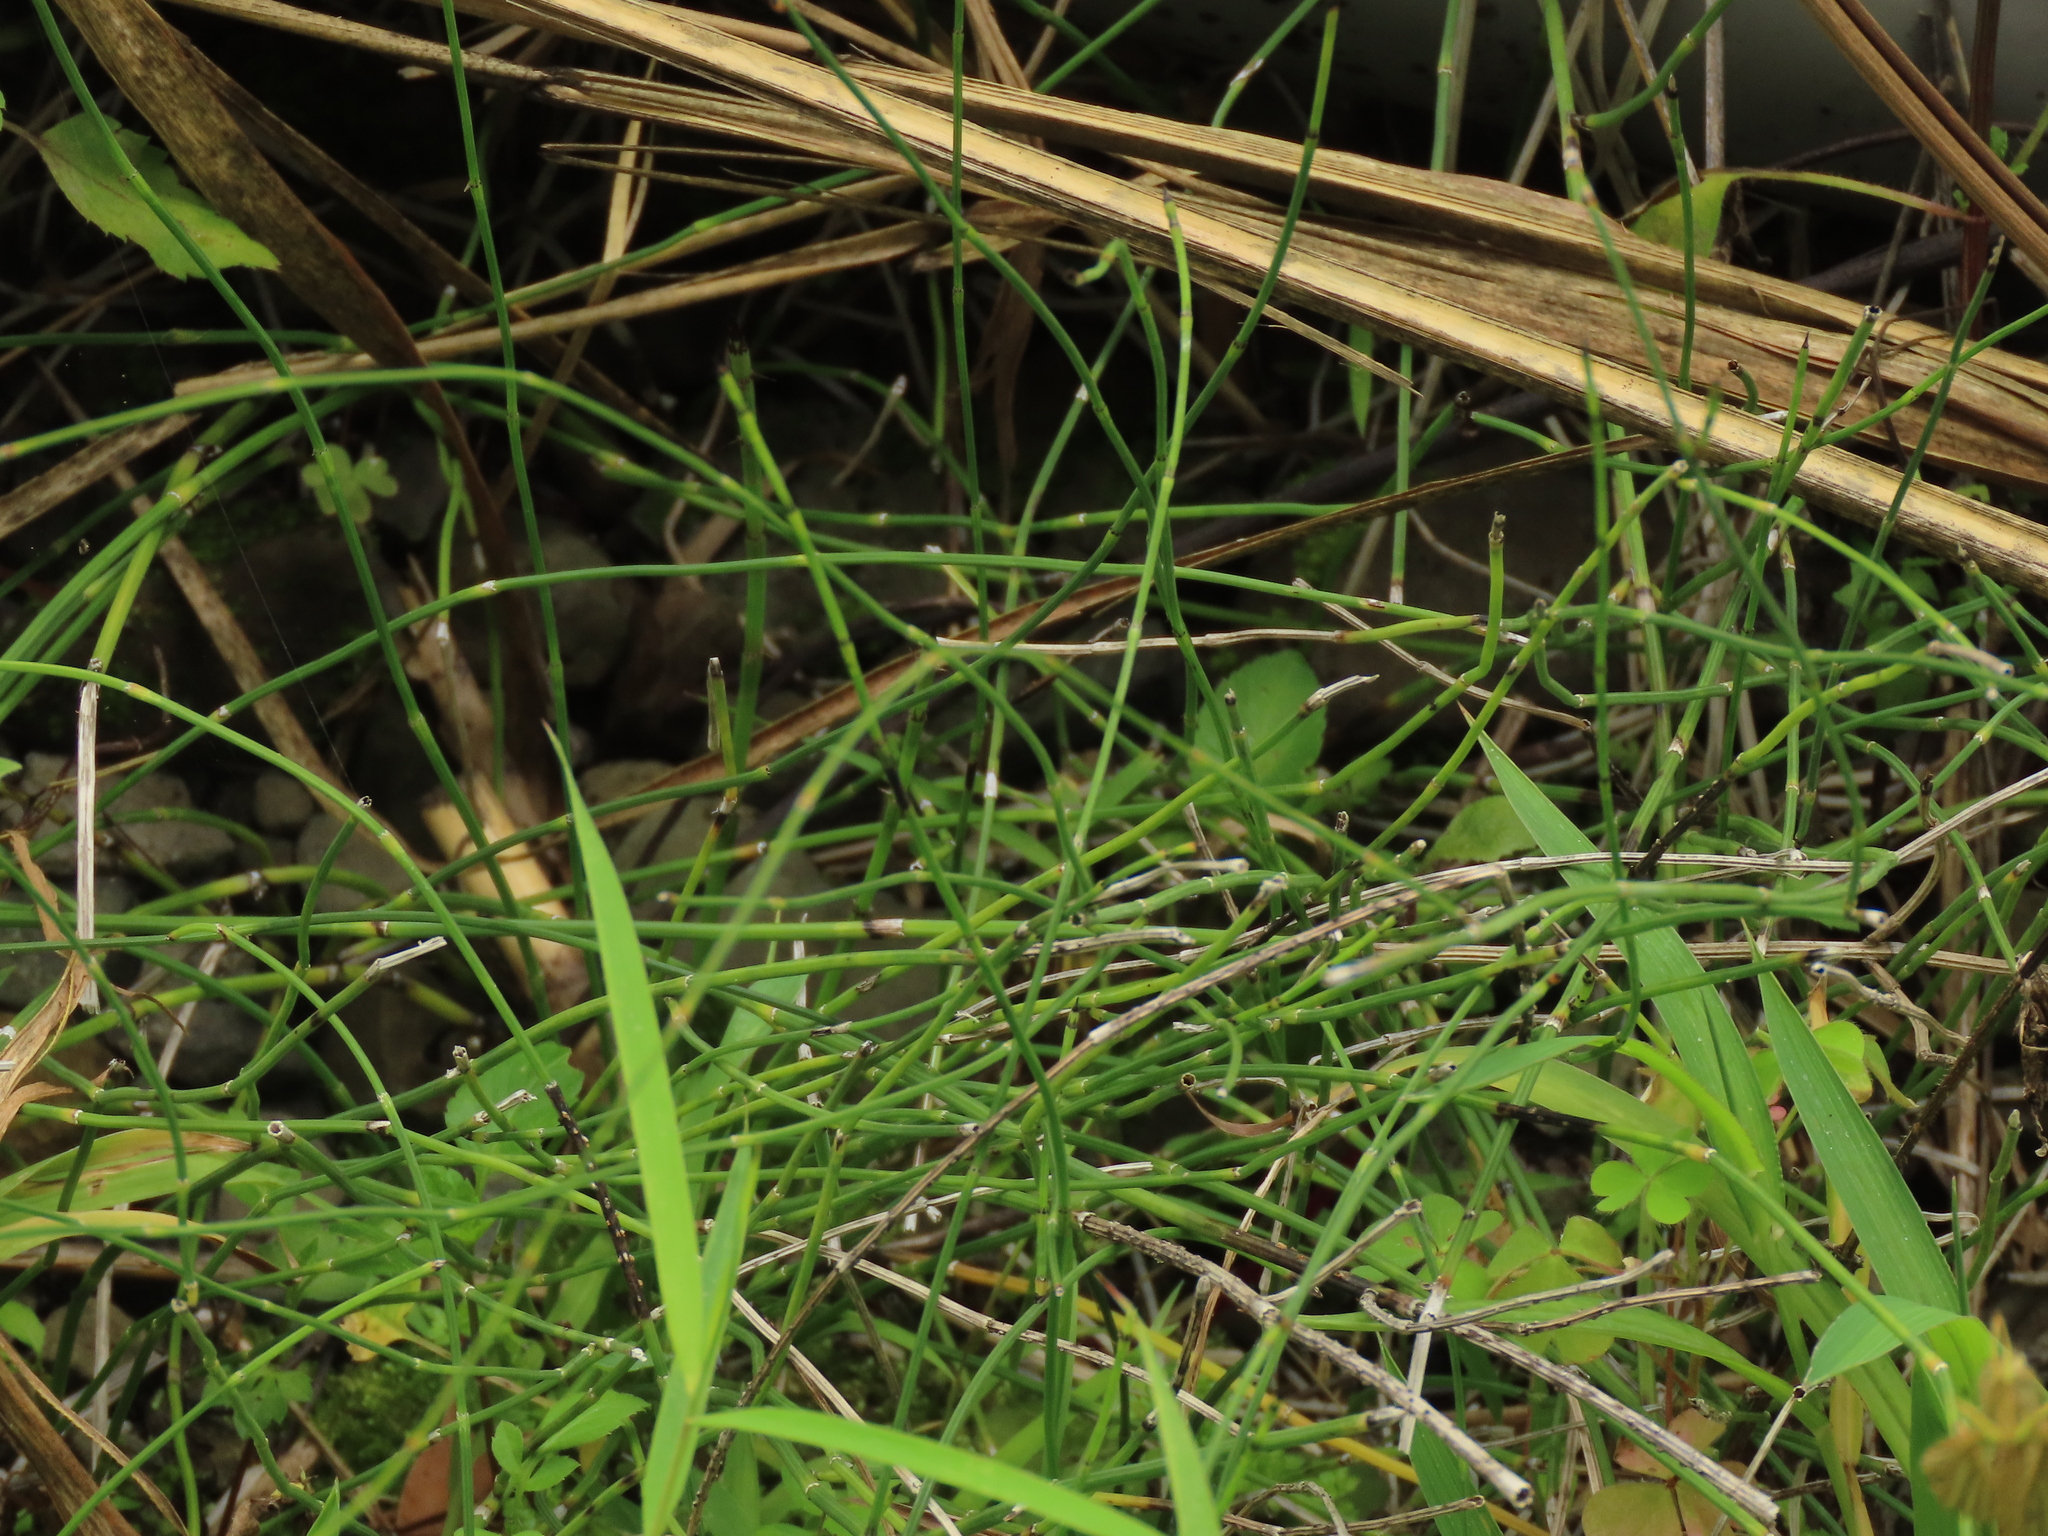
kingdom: Plantae
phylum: Tracheophyta
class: Polypodiopsida
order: Equisetales
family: Equisetaceae
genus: Equisetum
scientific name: Equisetum ramosissimum
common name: Branched horsetail
